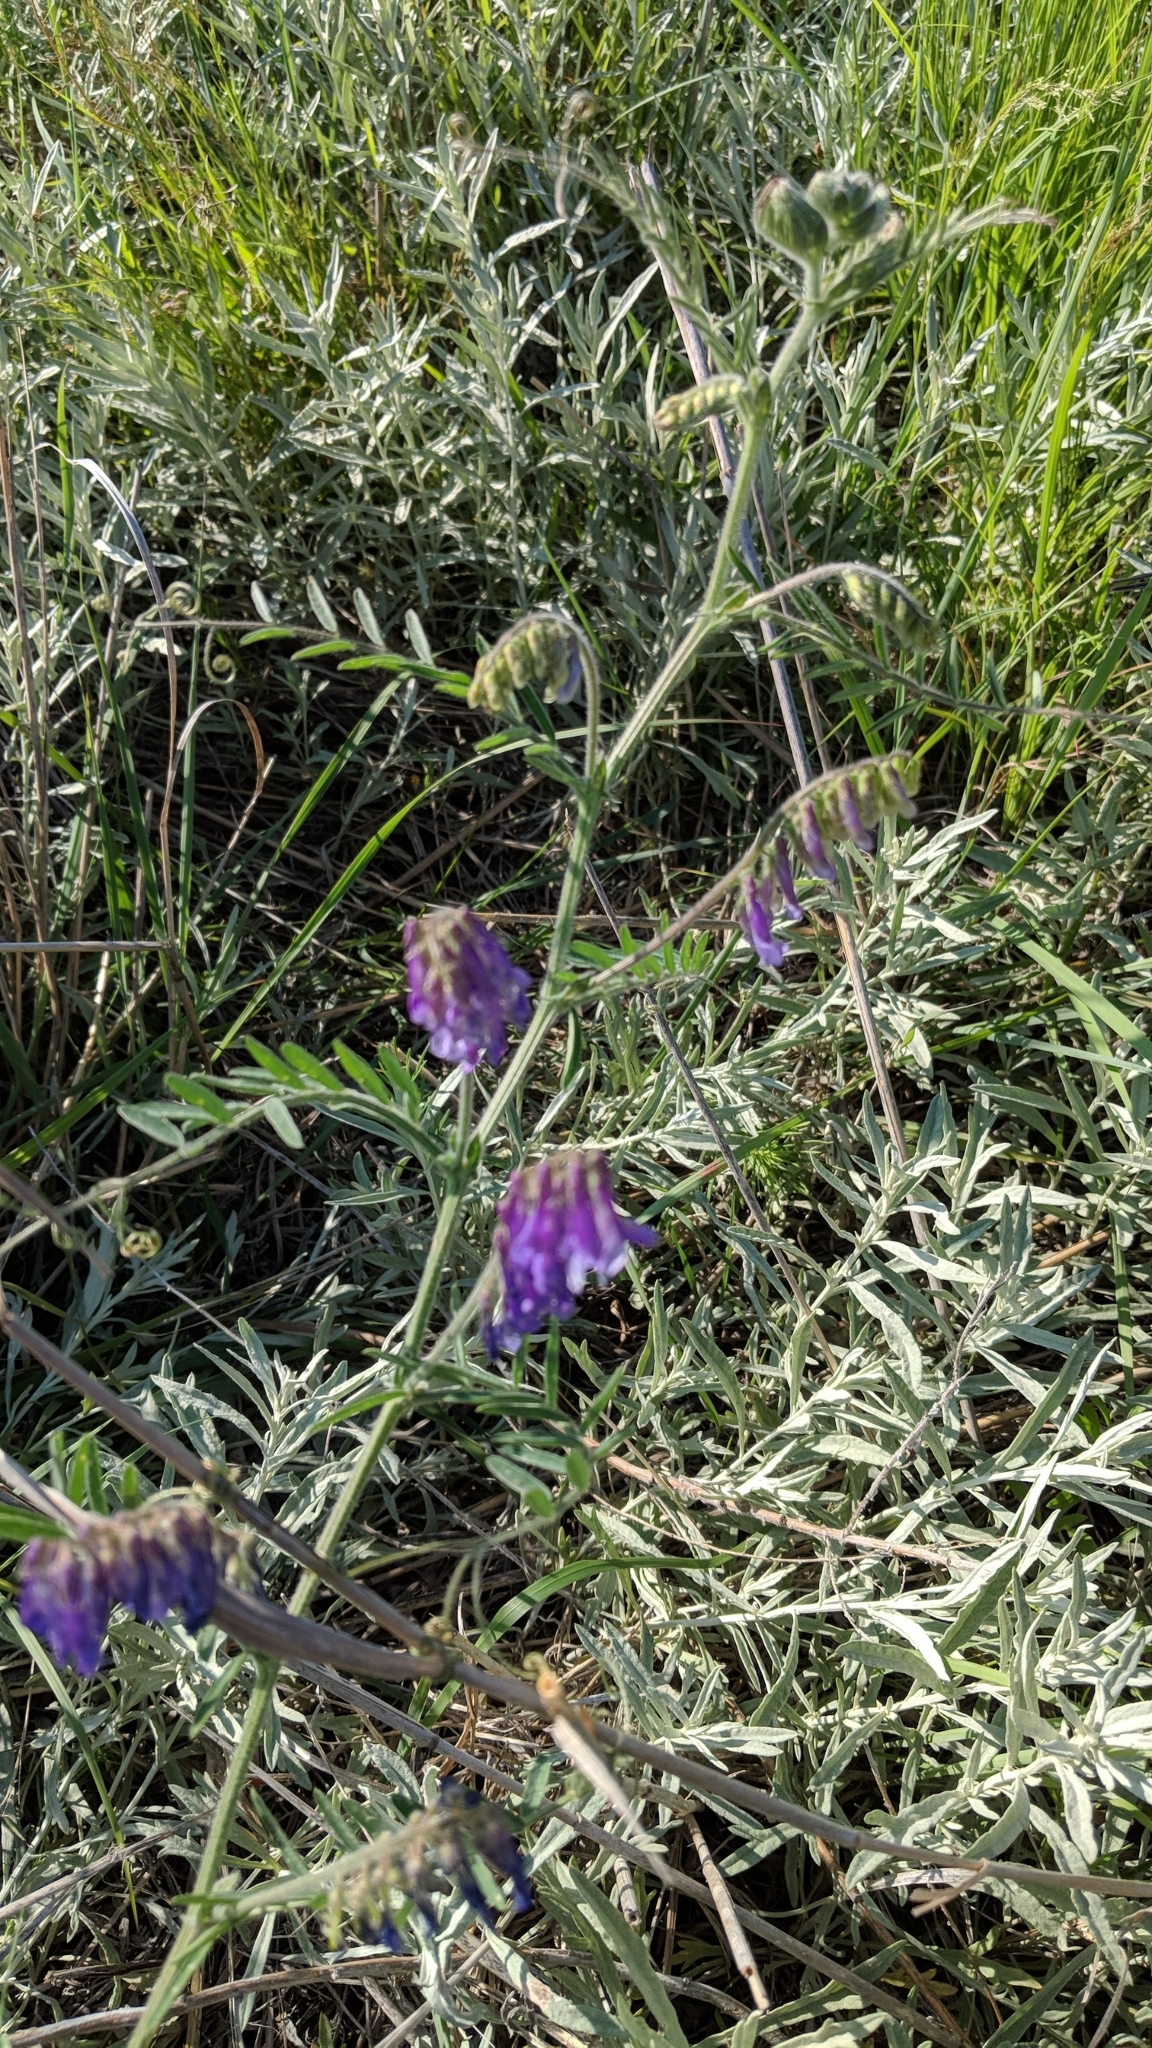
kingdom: Plantae
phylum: Tracheophyta
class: Magnoliopsida
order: Fabales
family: Fabaceae
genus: Vicia
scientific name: Vicia villosa
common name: Fodder vetch
